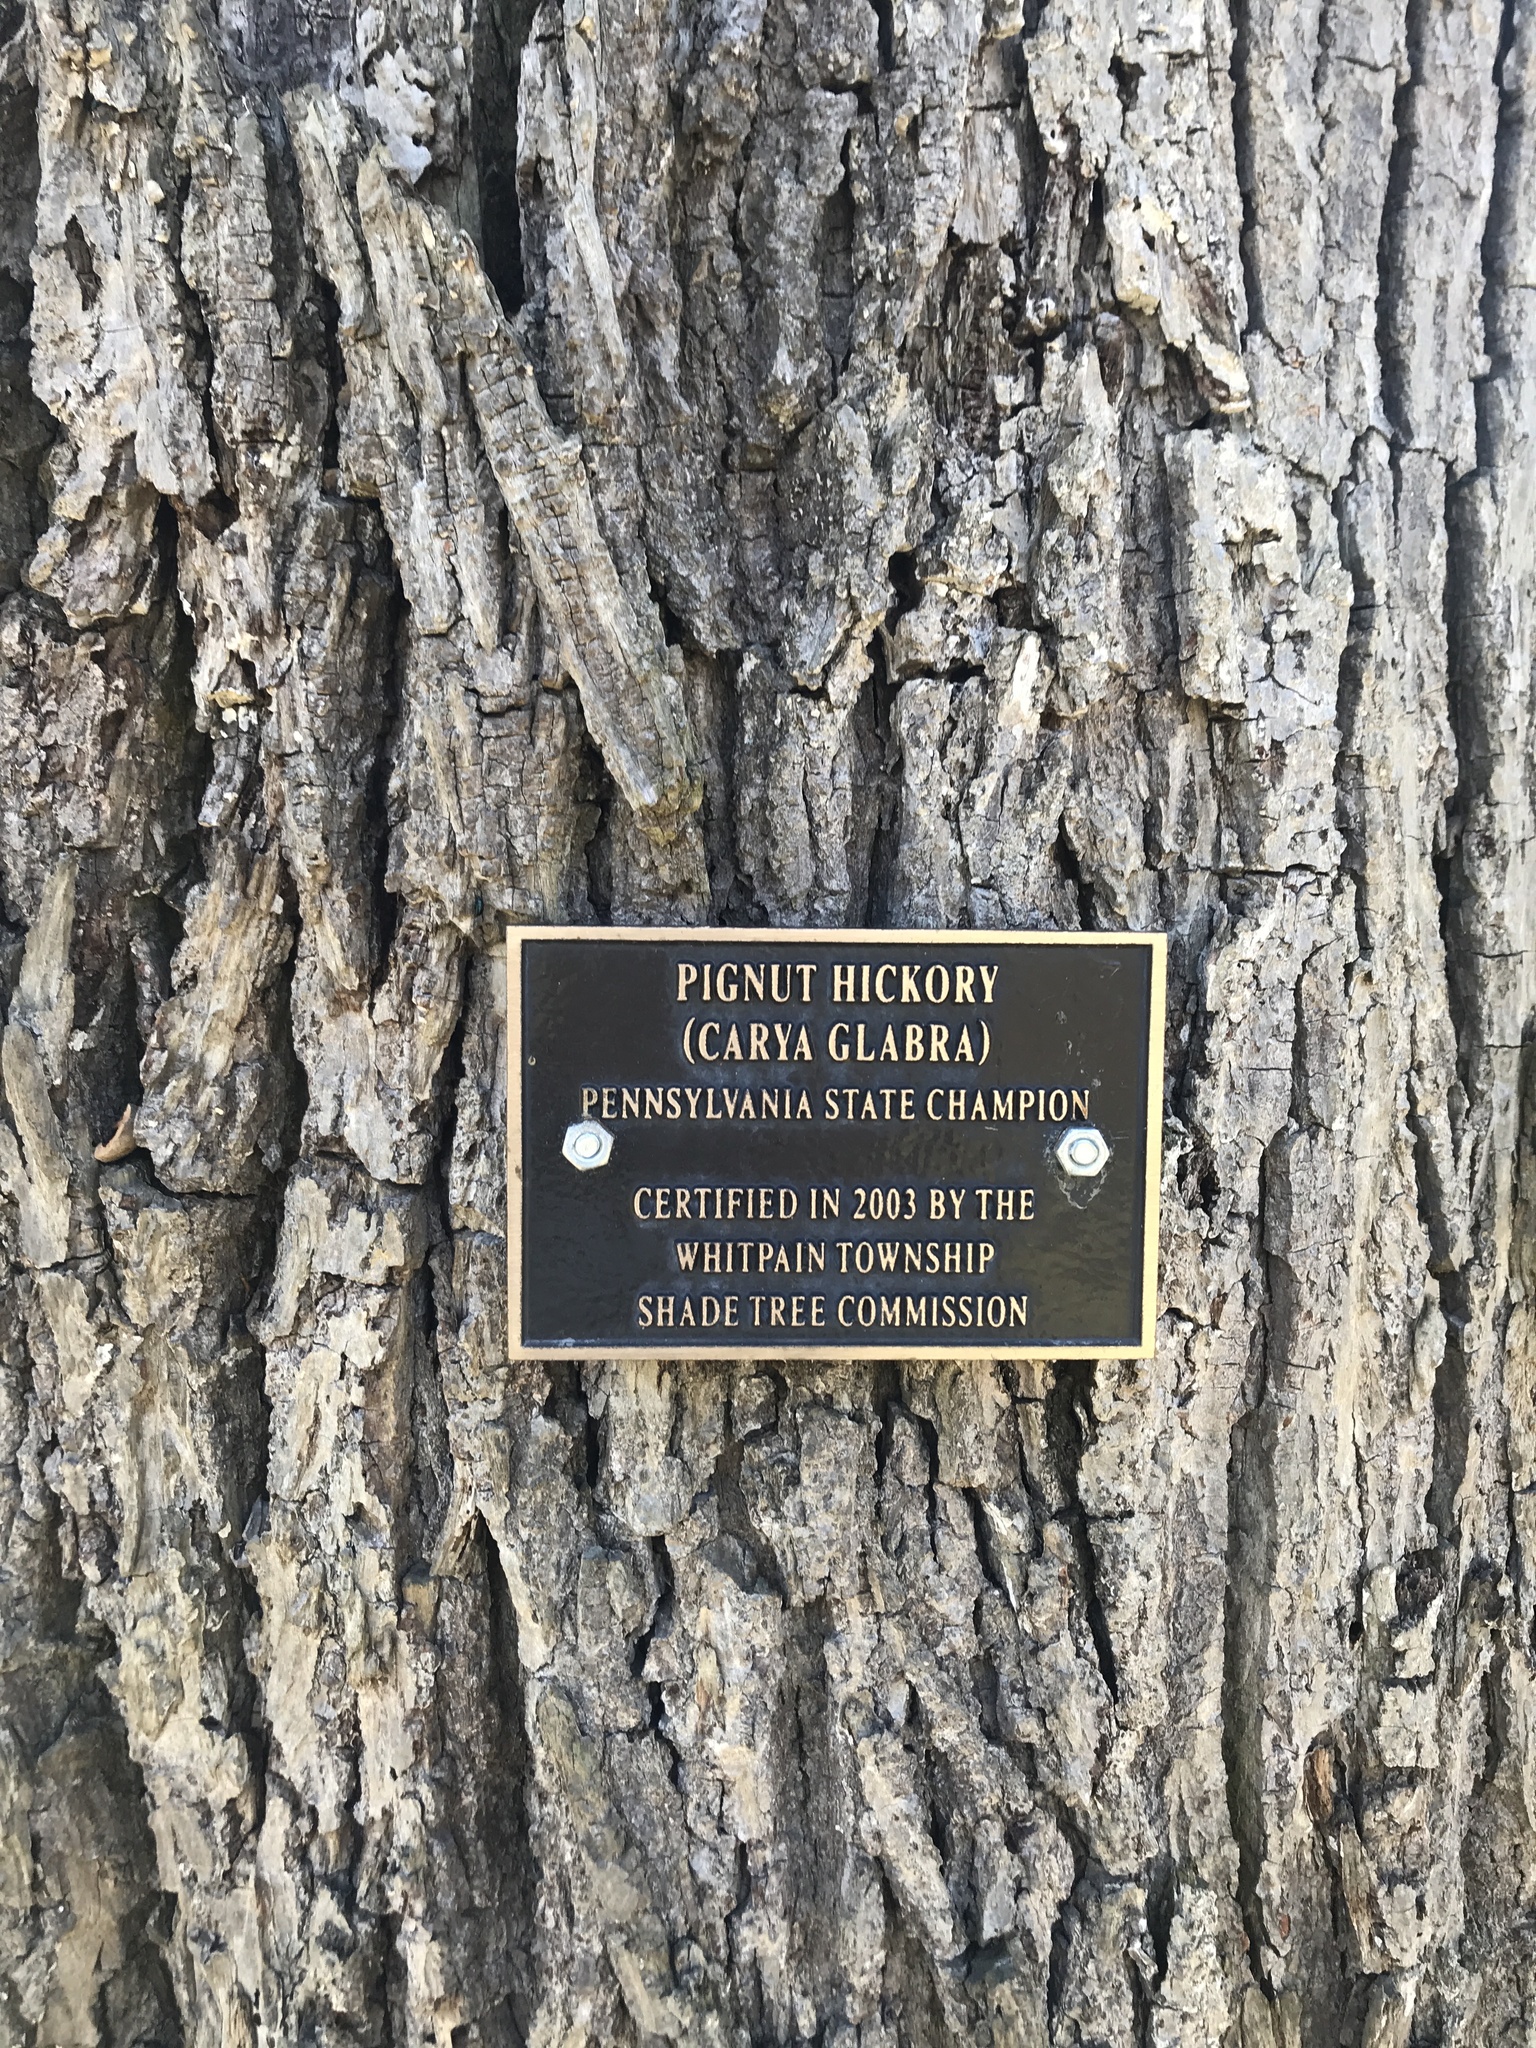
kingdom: Plantae
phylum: Tracheophyta
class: Magnoliopsida
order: Fagales
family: Juglandaceae
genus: Carya
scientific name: Carya glabra
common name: Pignut hickory
